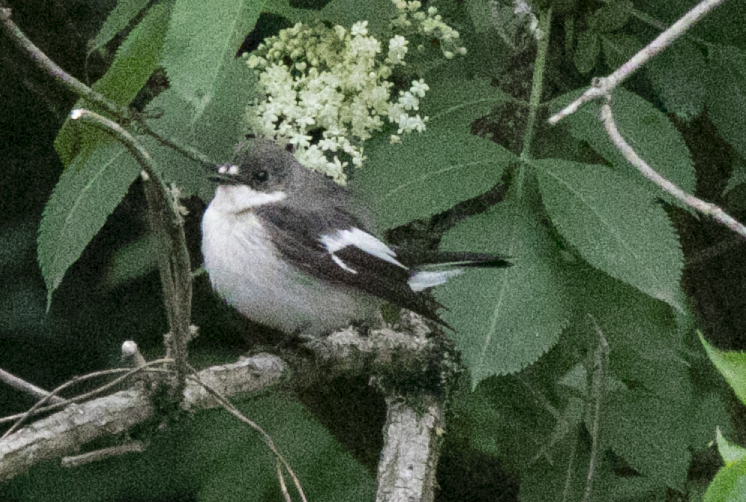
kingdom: Animalia
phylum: Chordata
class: Aves
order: Passeriformes
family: Muscicapidae
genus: Ficedula
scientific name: Ficedula hypoleuca
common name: European pied flycatcher
